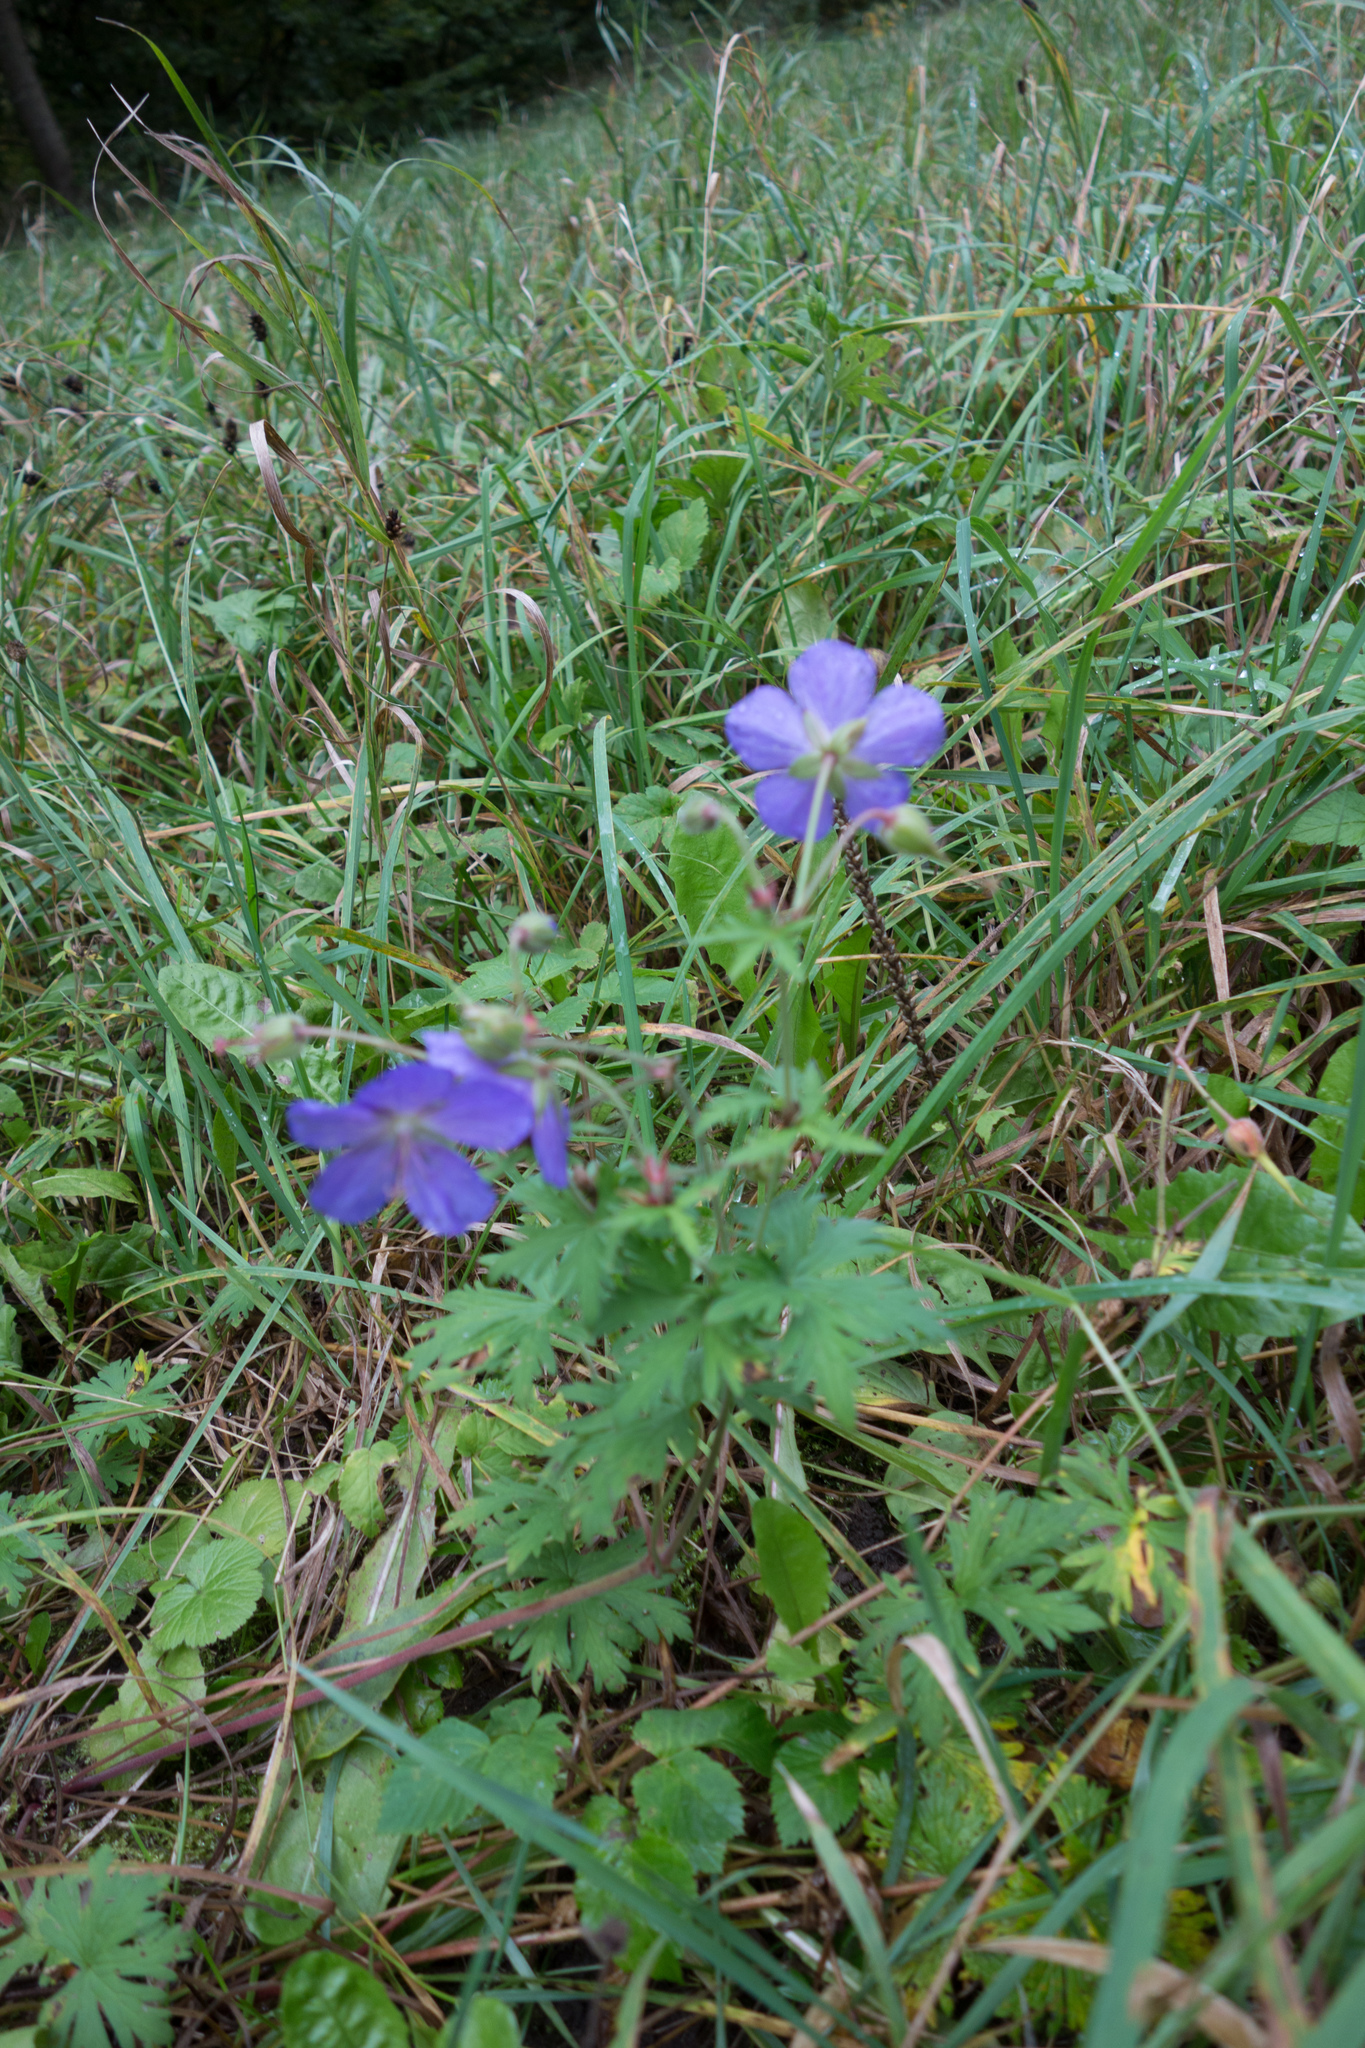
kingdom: Plantae
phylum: Tracheophyta
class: Magnoliopsida
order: Geraniales
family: Geraniaceae
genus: Geranium
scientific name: Geranium pratense
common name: Meadow crane's-bill
